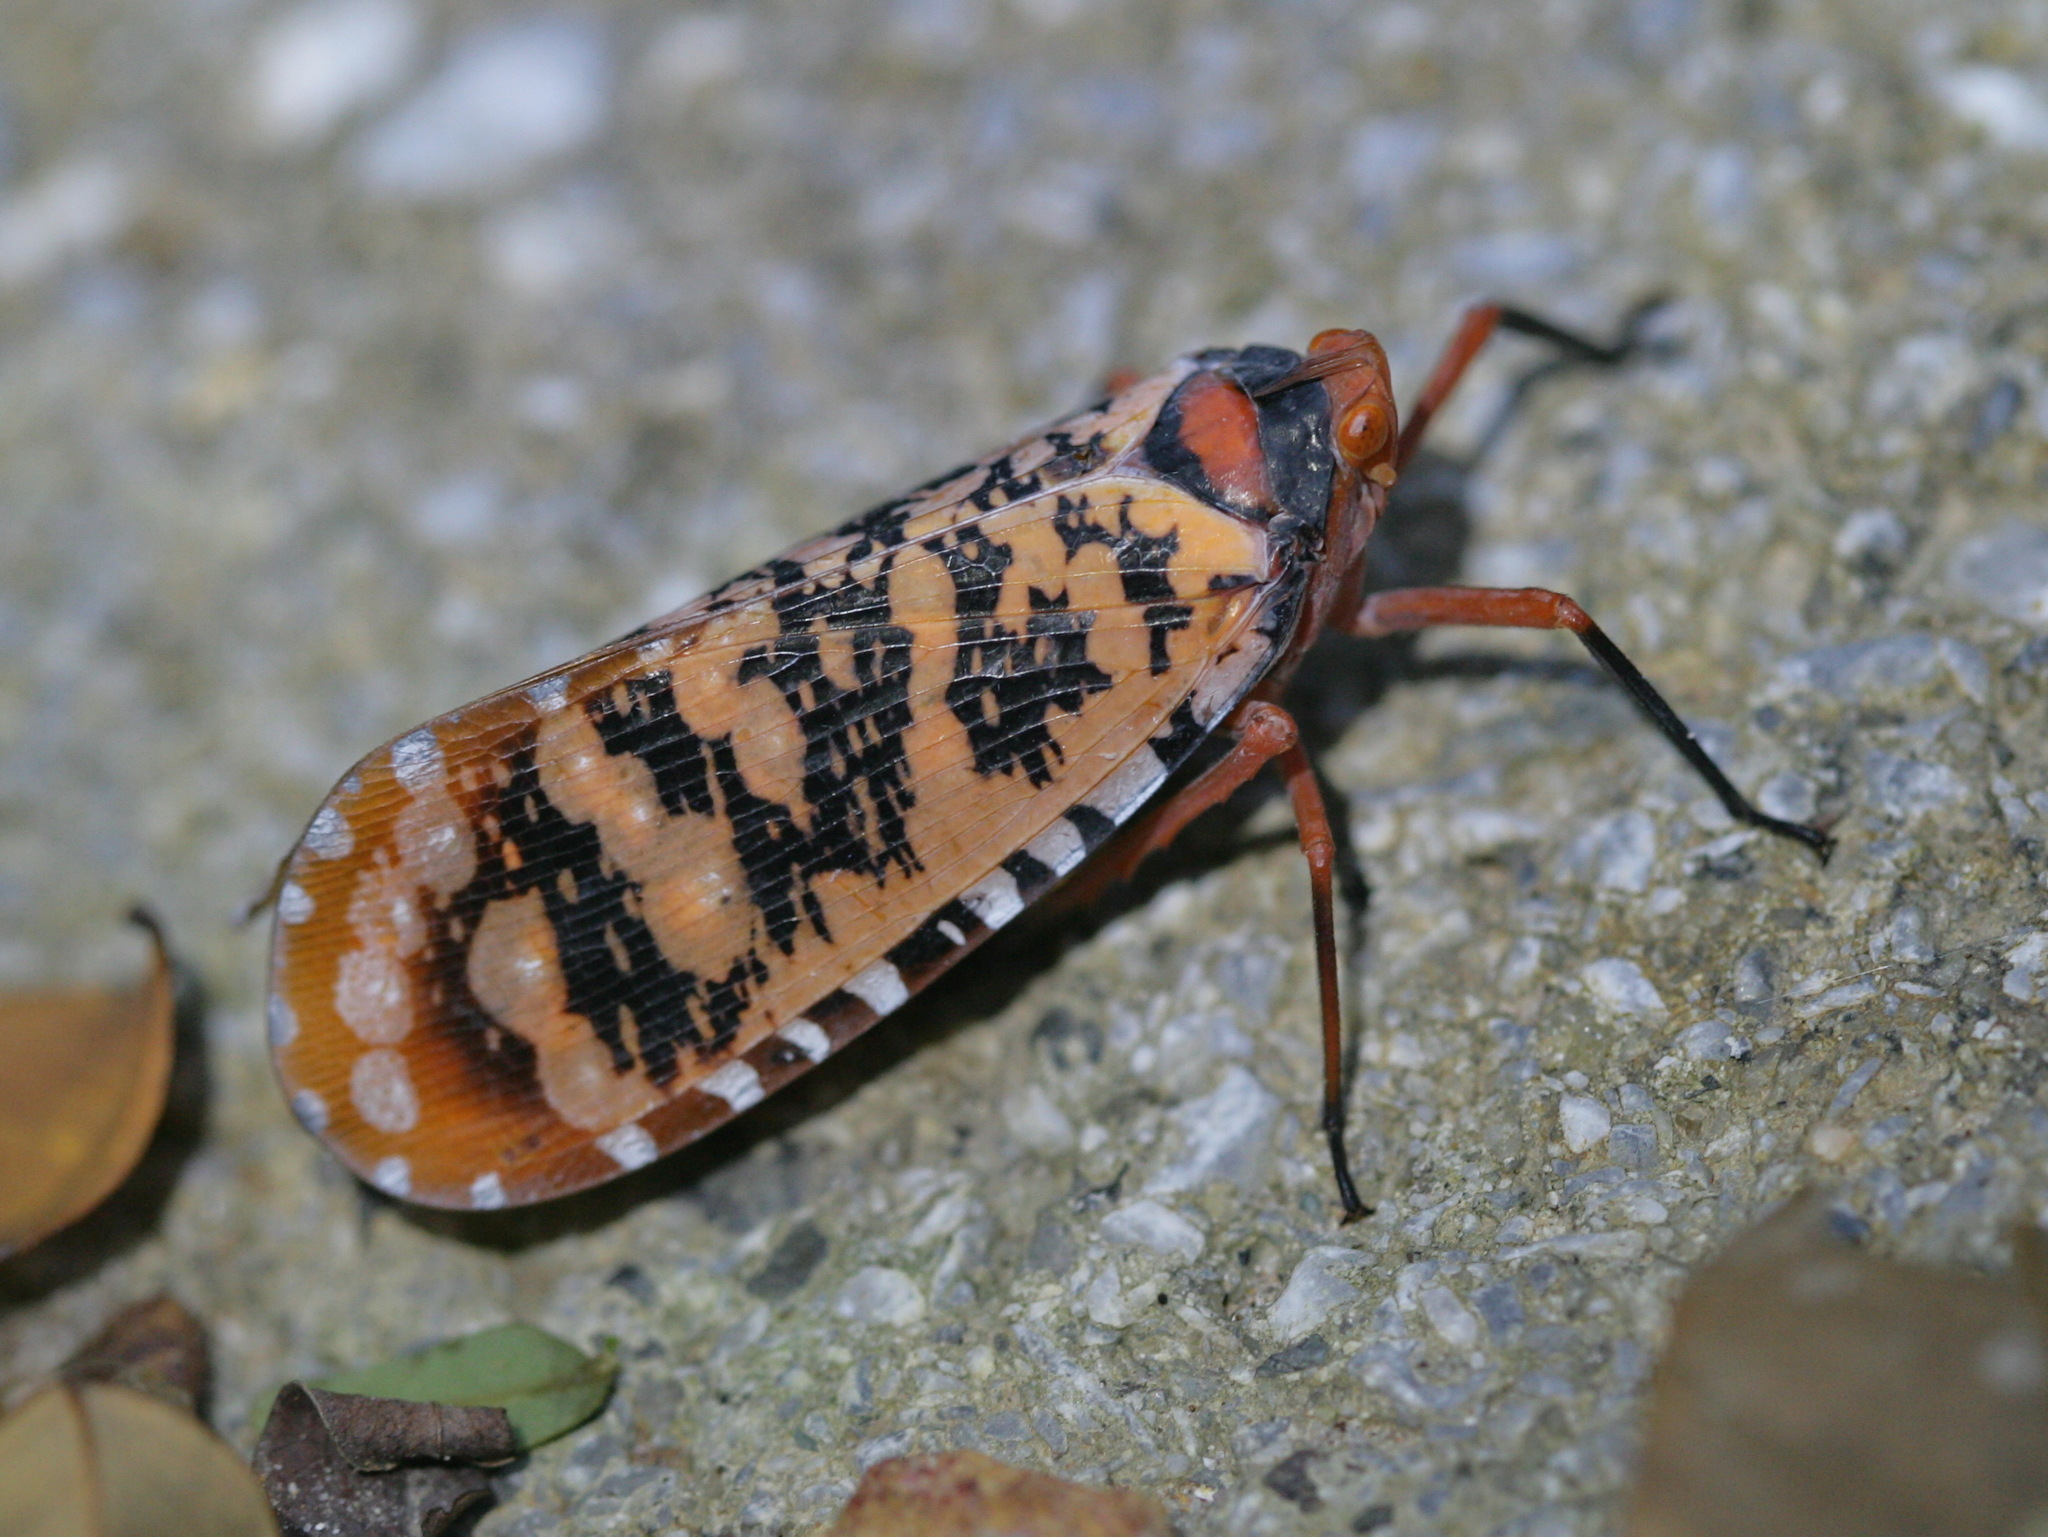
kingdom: Animalia
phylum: Arthropoda
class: Insecta
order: Hemiptera
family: Fulgoridae
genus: Aphaena
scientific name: Aphaena discolor
